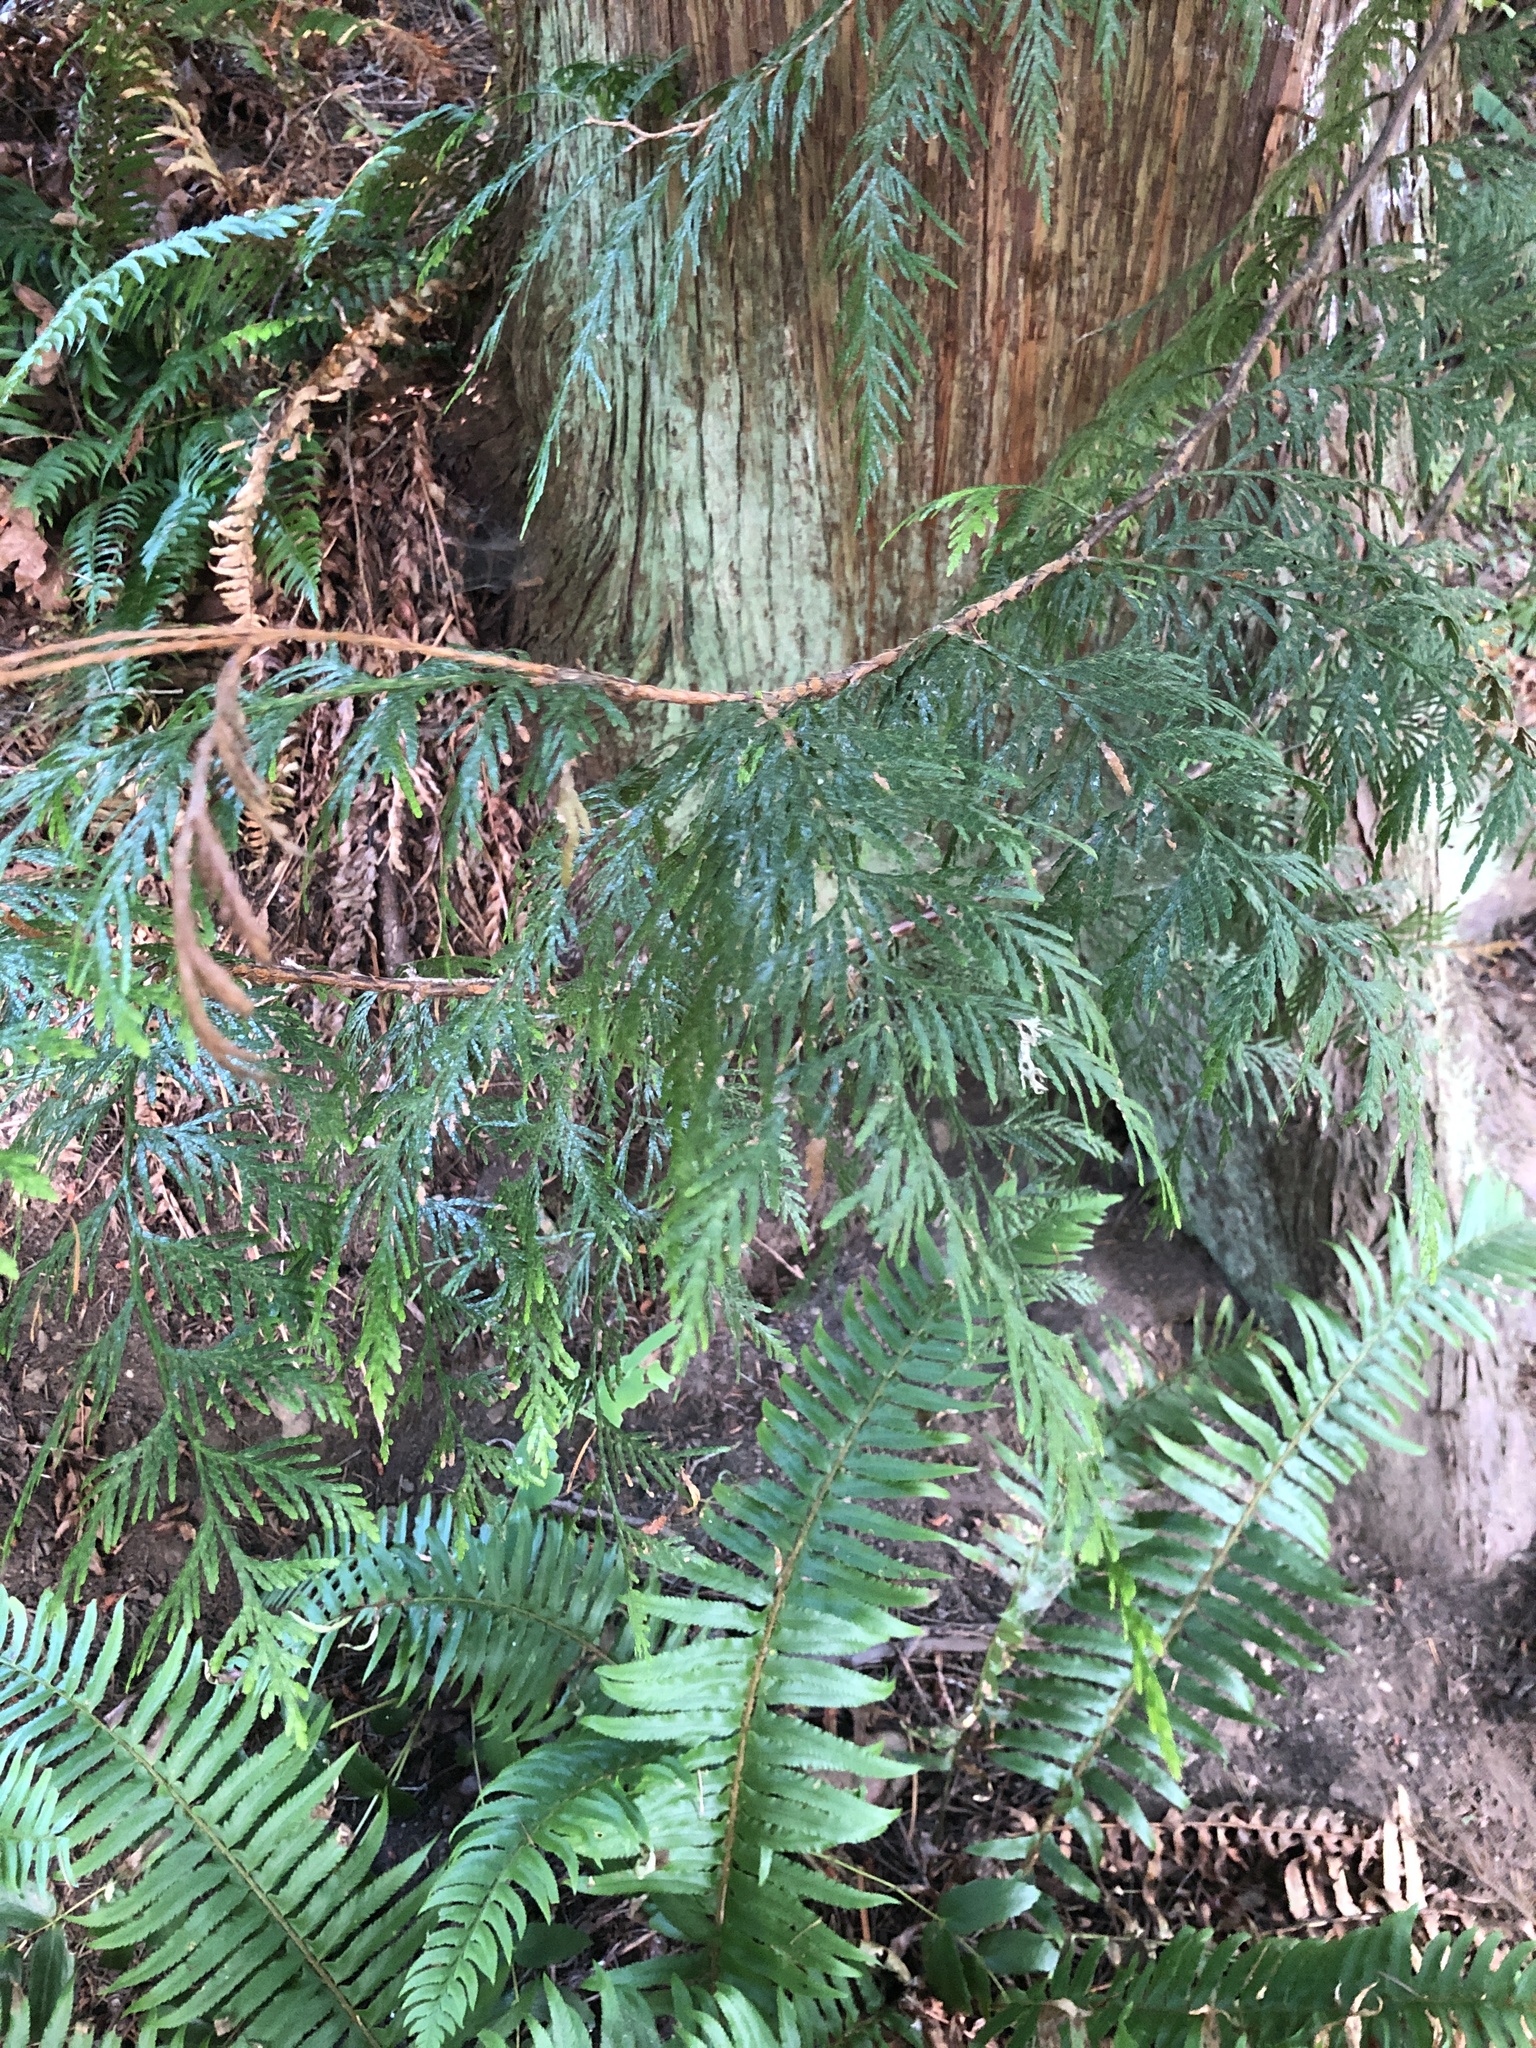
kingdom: Plantae
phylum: Tracheophyta
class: Pinopsida
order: Pinales
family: Cupressaceae
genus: Thuja
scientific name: Thuja plicata
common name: Western red-cedar
